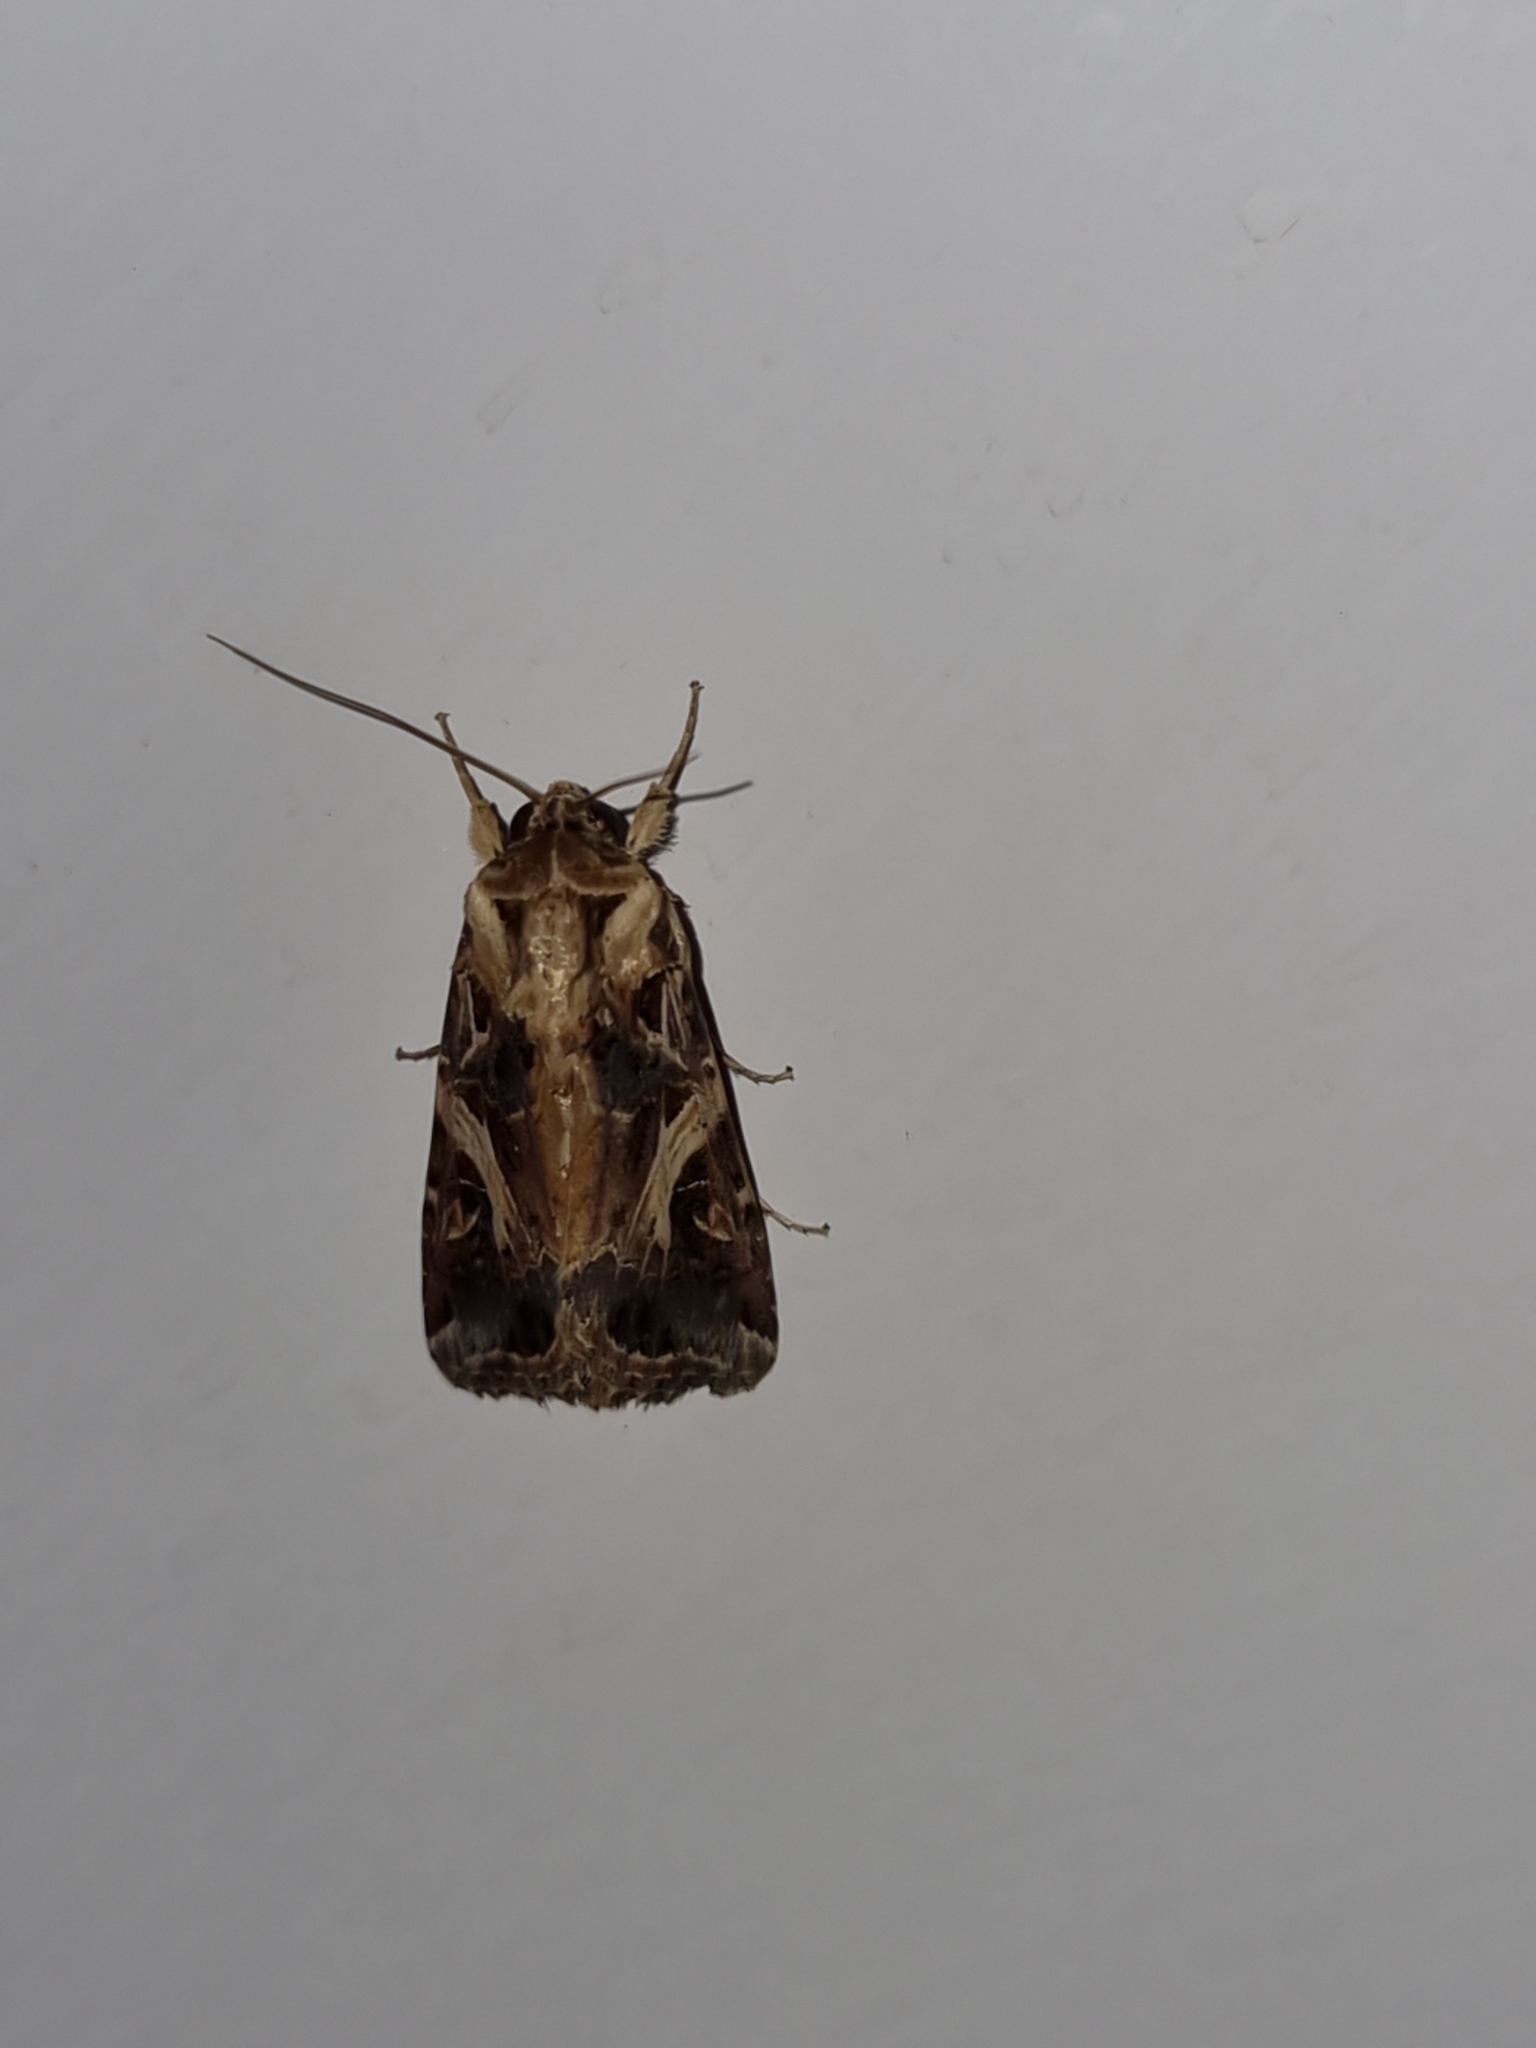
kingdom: Animalia
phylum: Arthropoda
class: Insecta
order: Lepidoptera
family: Noctuidae
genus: Spodoptera
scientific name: Spodoptera litura
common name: Asian cotton leafworm
